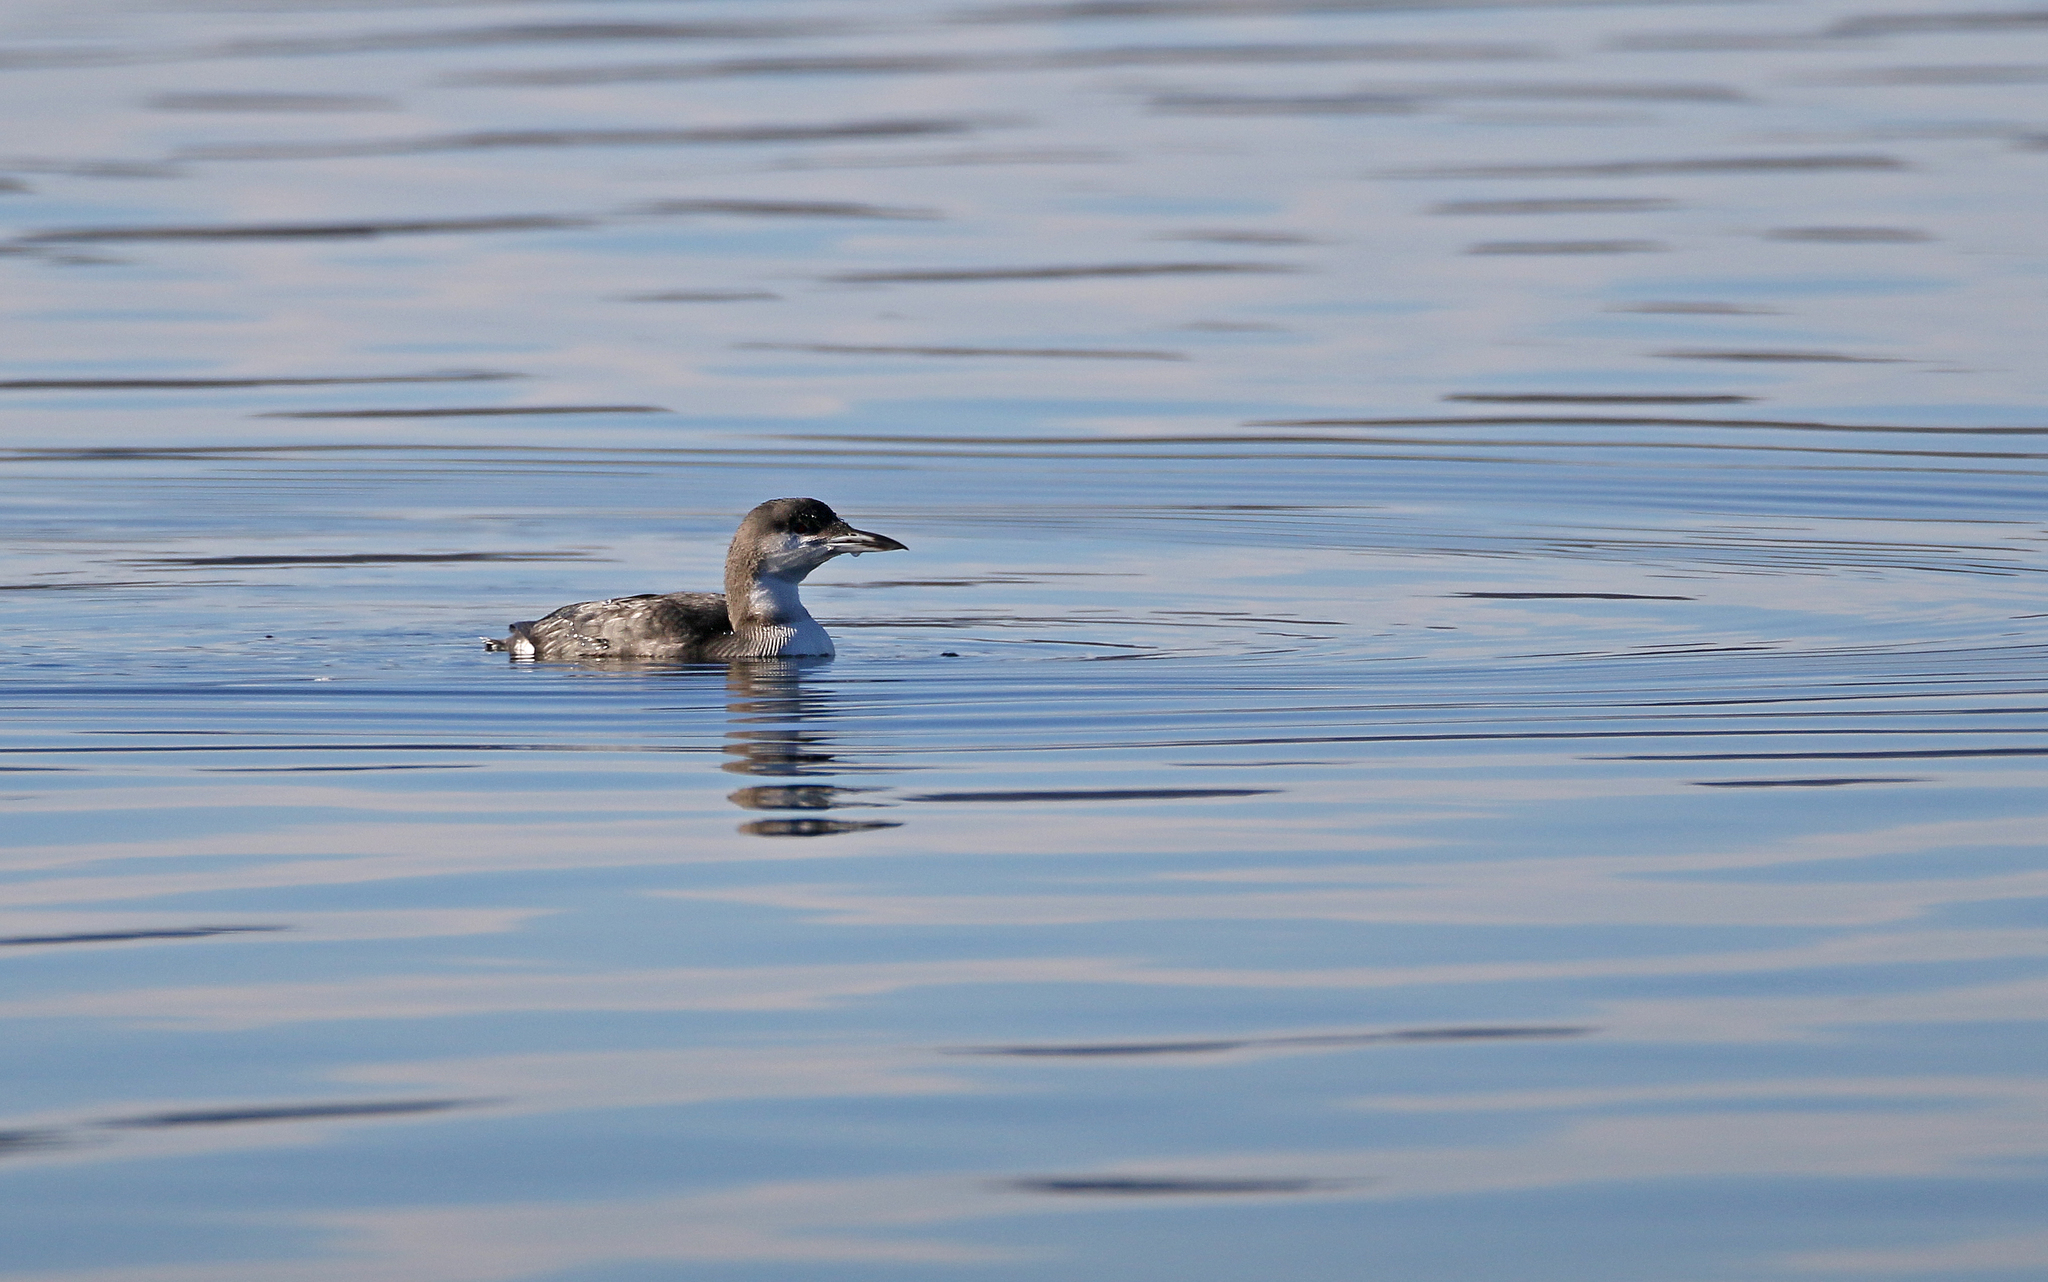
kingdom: Animalia
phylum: Chordata
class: Aves
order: Gaviiformes
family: Gaviidae
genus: Gavia
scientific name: Gavia arctica
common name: Black-throated loon
